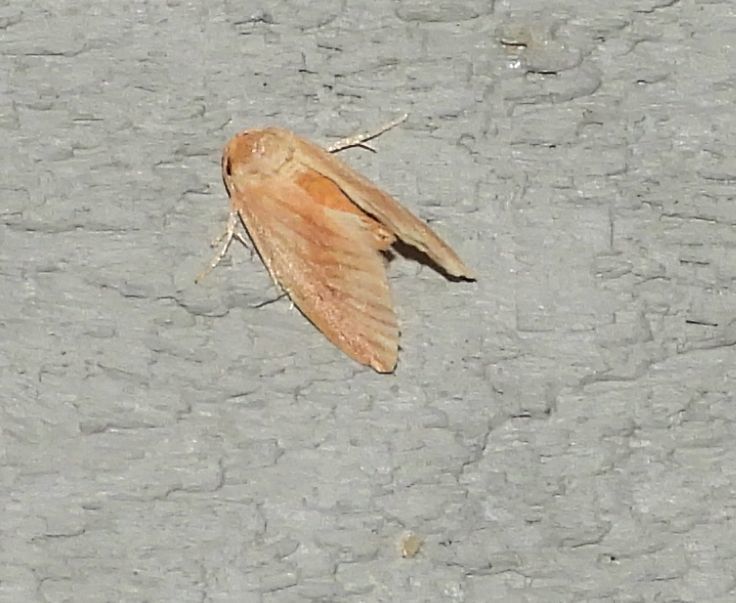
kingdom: Animalia
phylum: Arthropoda
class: Insecta
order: Lepidoptera
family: Limacodidae
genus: Tortricidia
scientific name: Tortricidia testacea
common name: Early button slug moth
